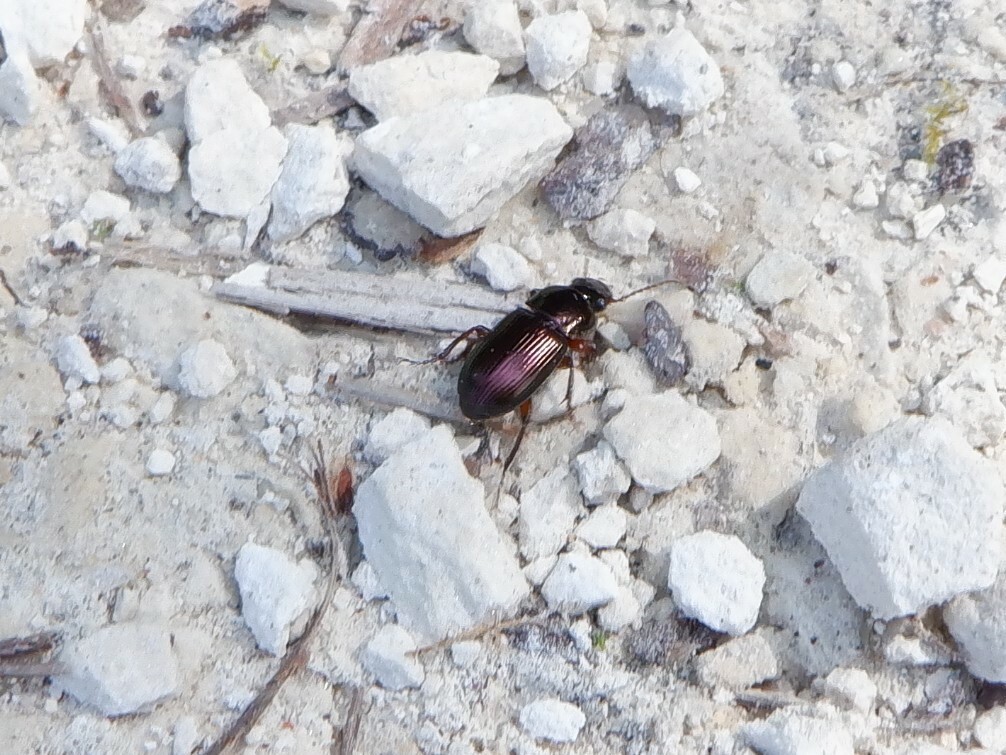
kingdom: Animalia
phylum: Arthropoda
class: Insecta
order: Coleoptera
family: Carabidae
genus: Harpalus
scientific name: Harpalus affinis
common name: Polychrome harp ground beetle
